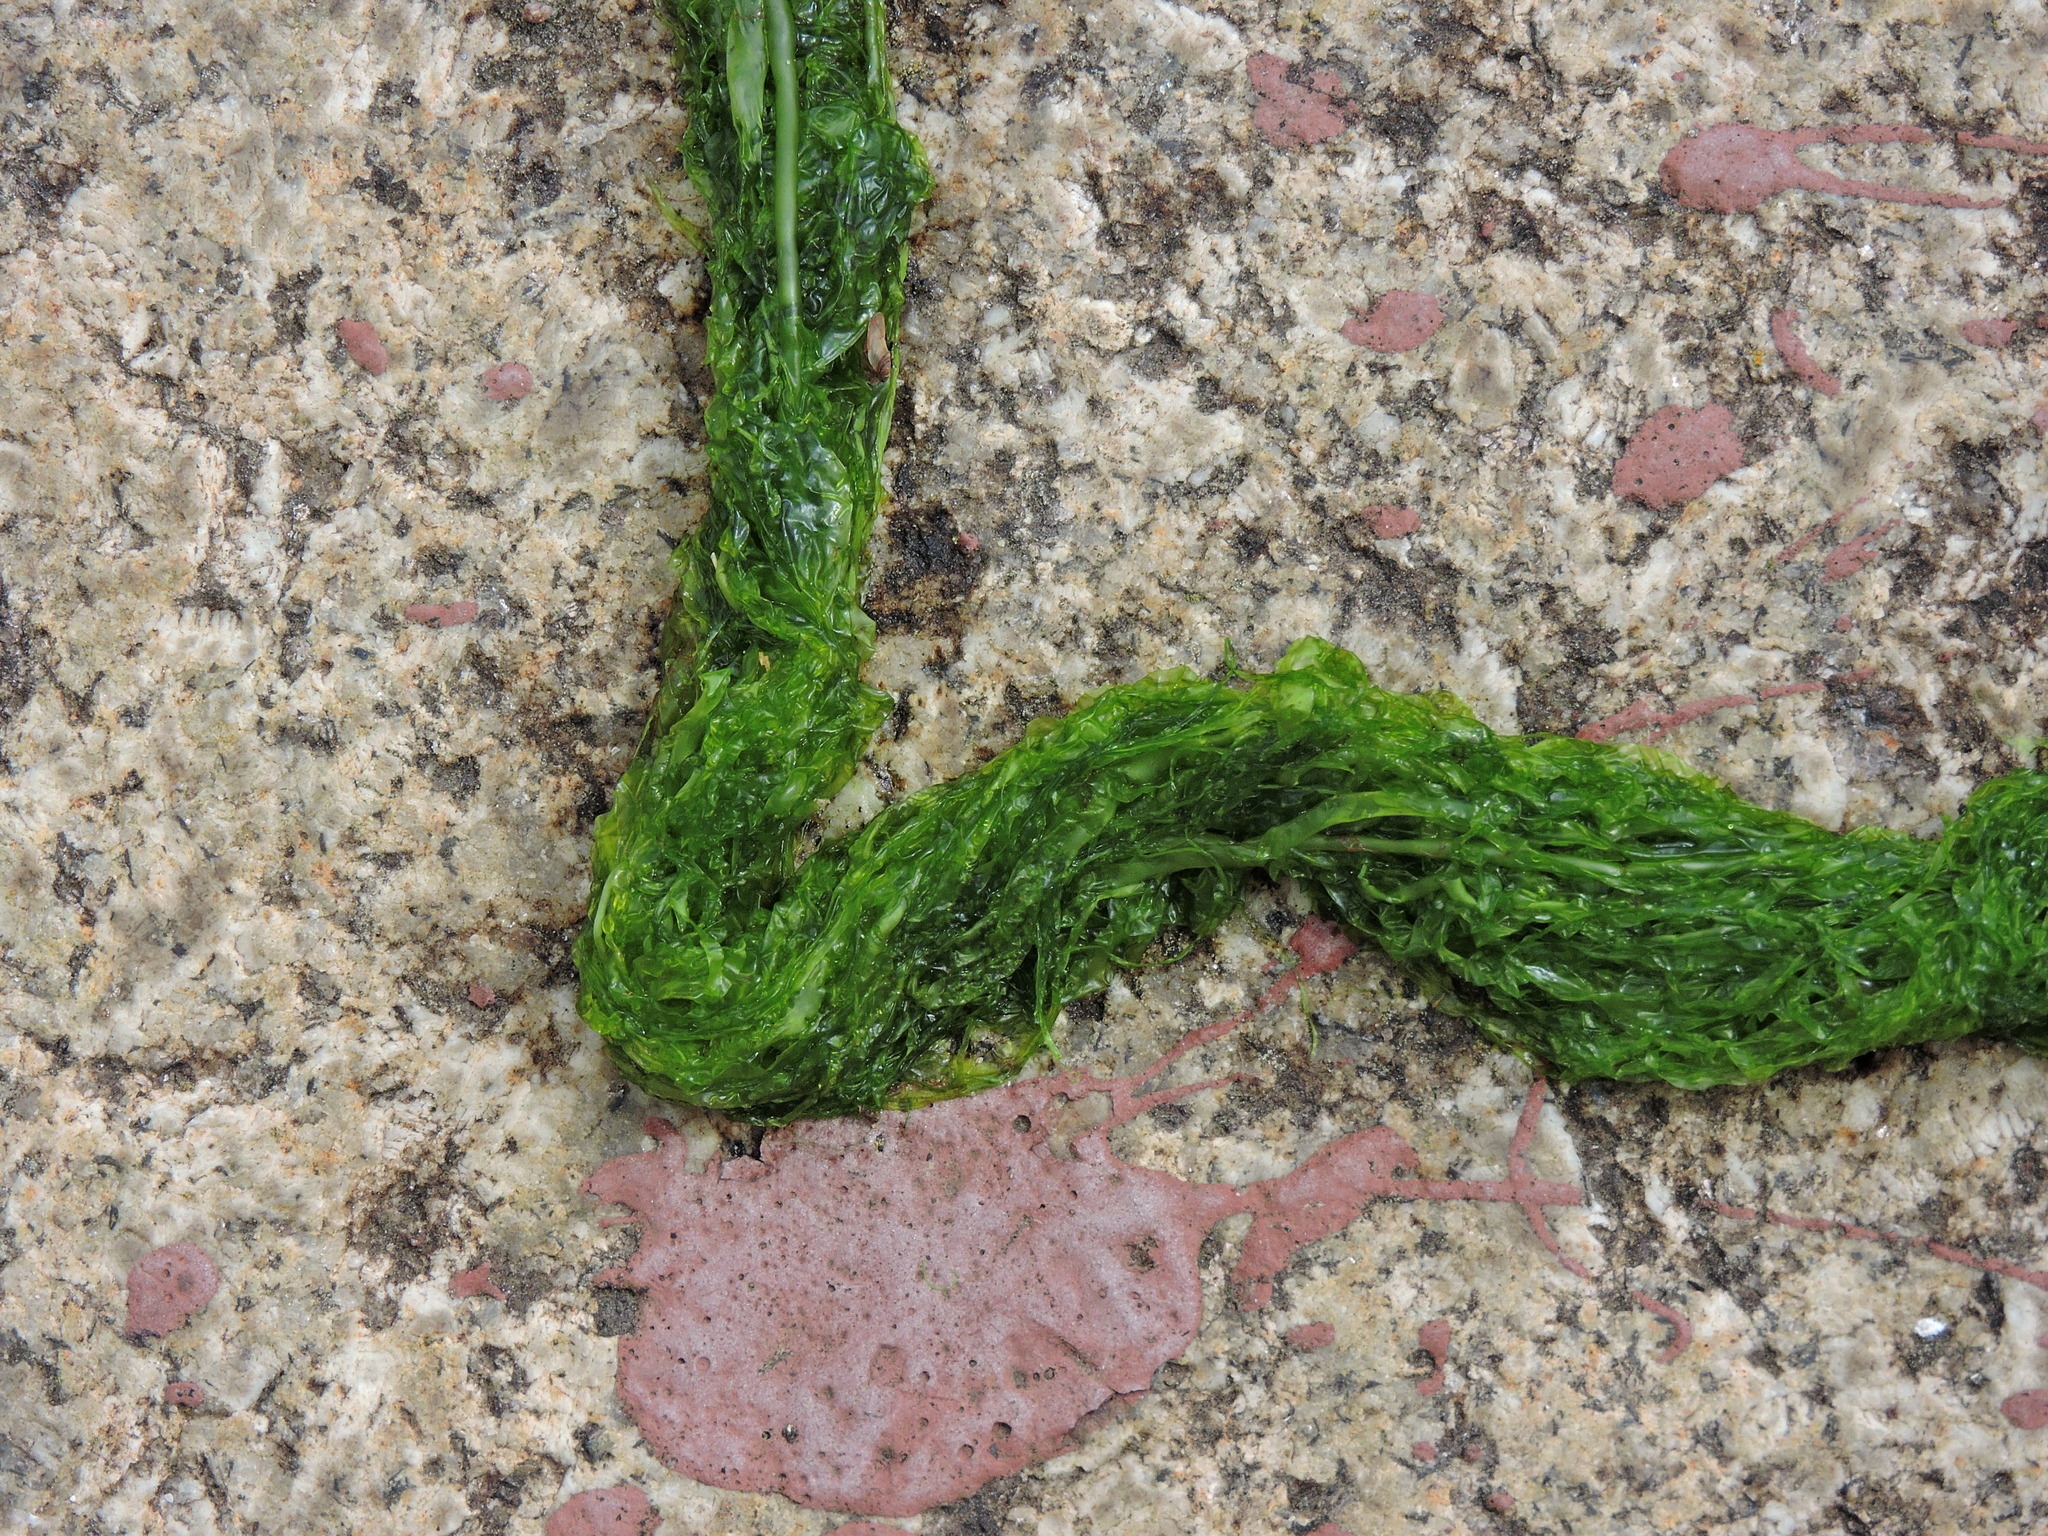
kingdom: Plantae
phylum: Chlorophyta
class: Ulvophyceae
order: Ulvales
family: Ulvaceae
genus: Ulva
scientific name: Ulva intestinalis
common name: Gut weed
